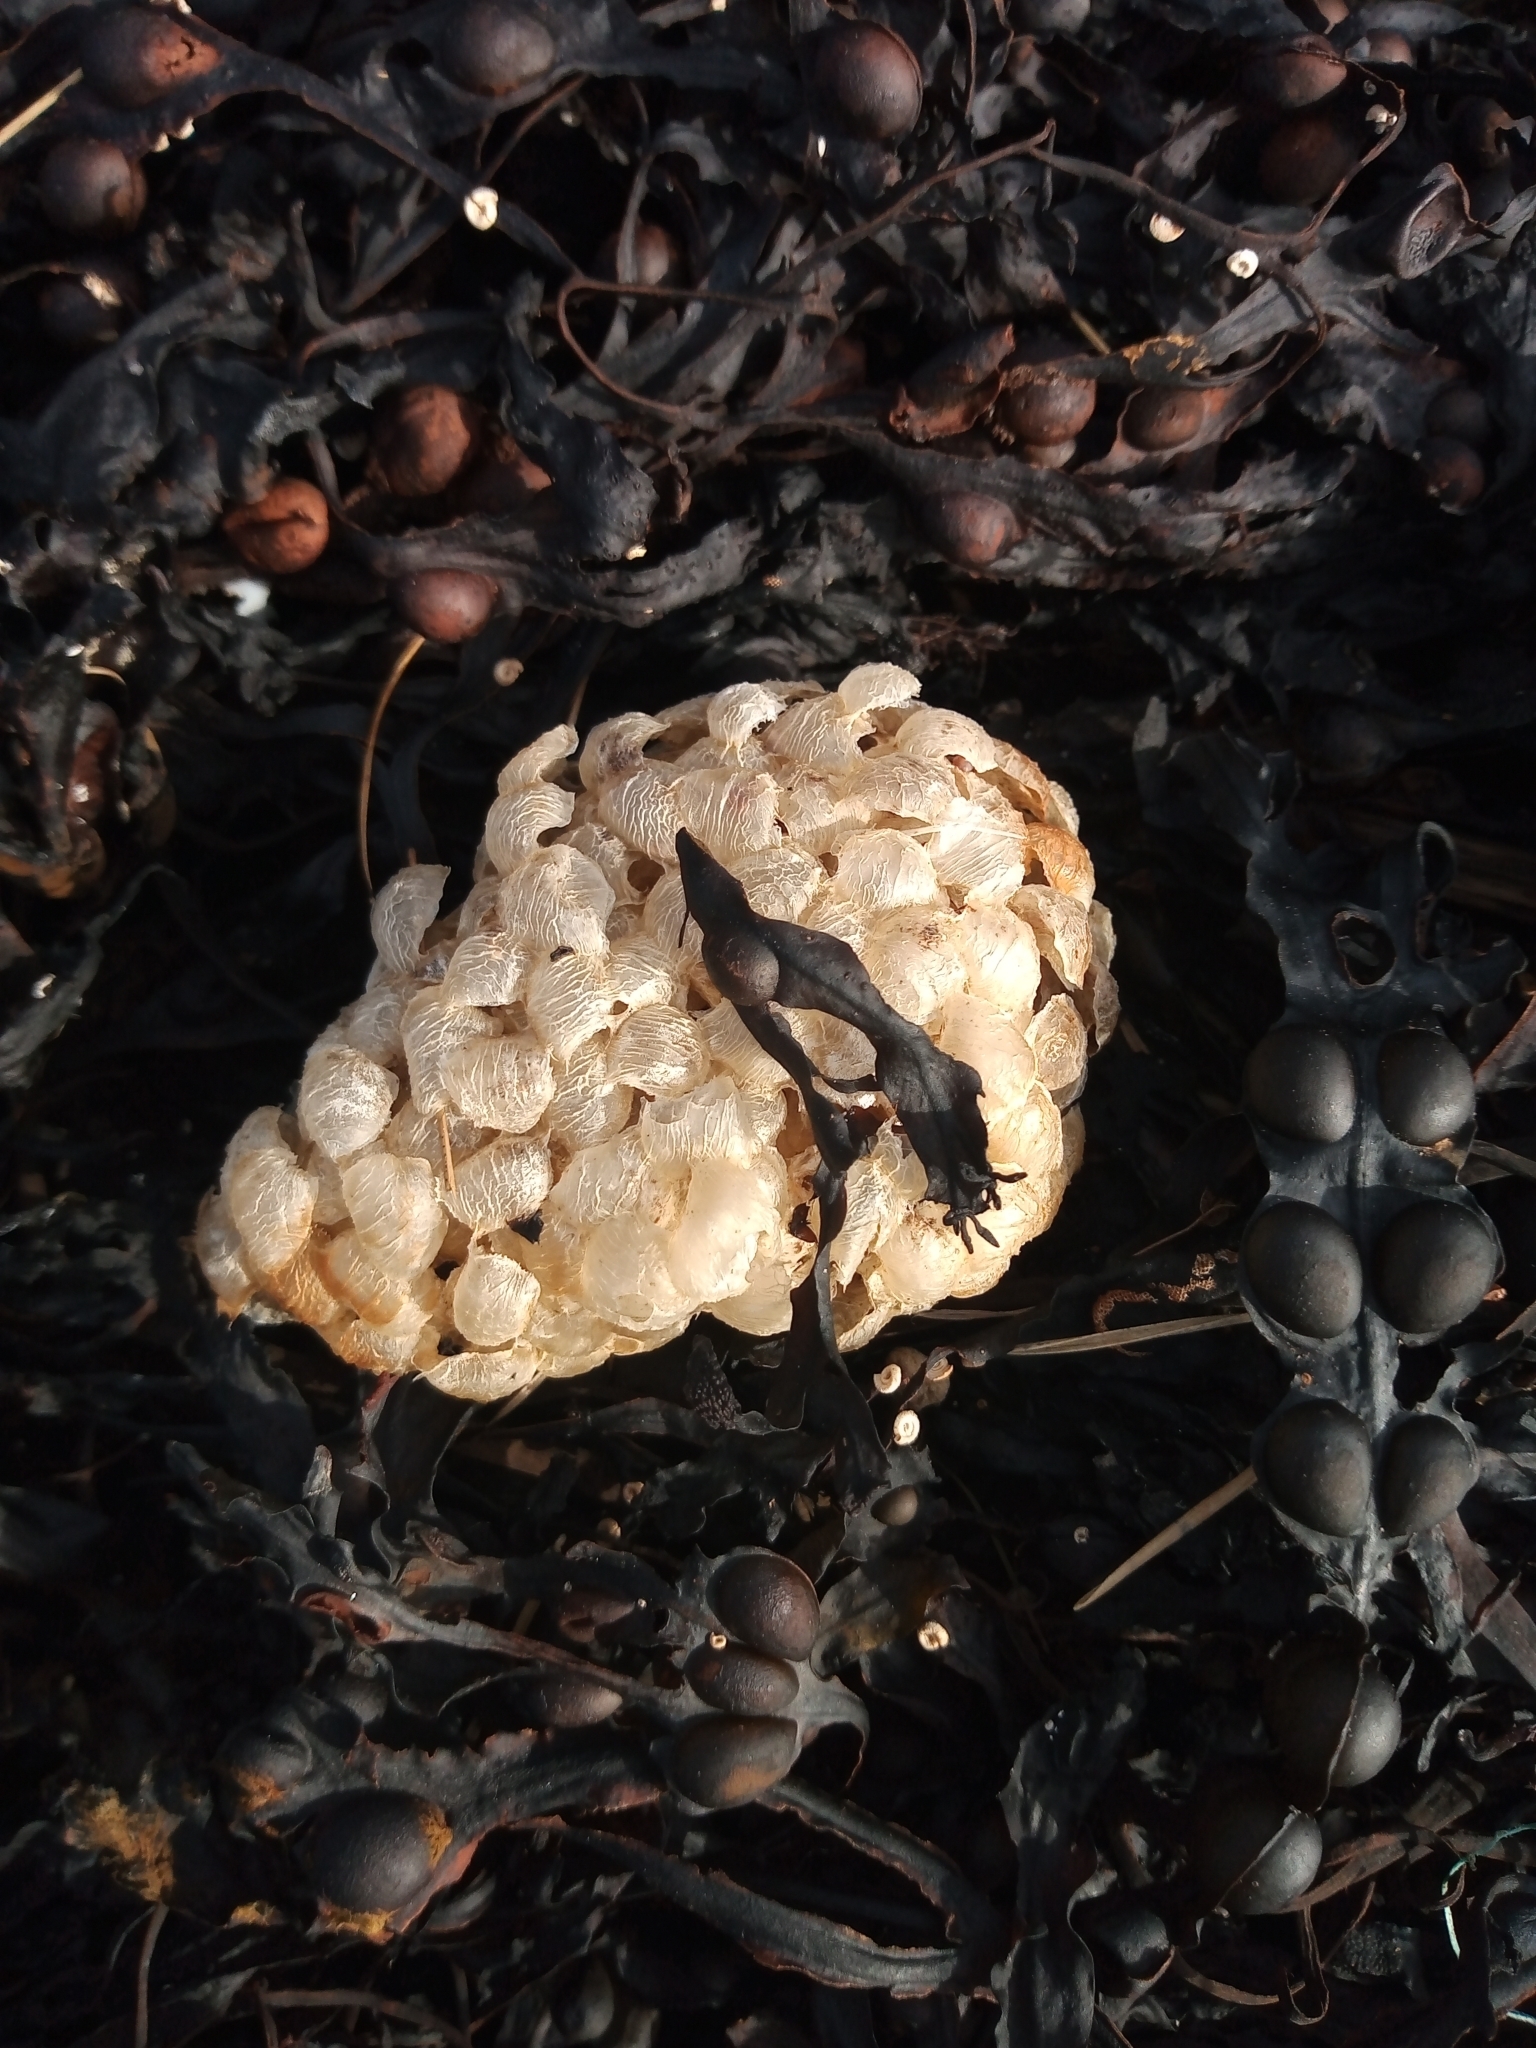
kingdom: Animalia
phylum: Mollusca
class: Gastropoda
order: Neogastropoda
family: Buccinidae
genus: Buccinum
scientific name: Buccinum undatum
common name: Common whelk
